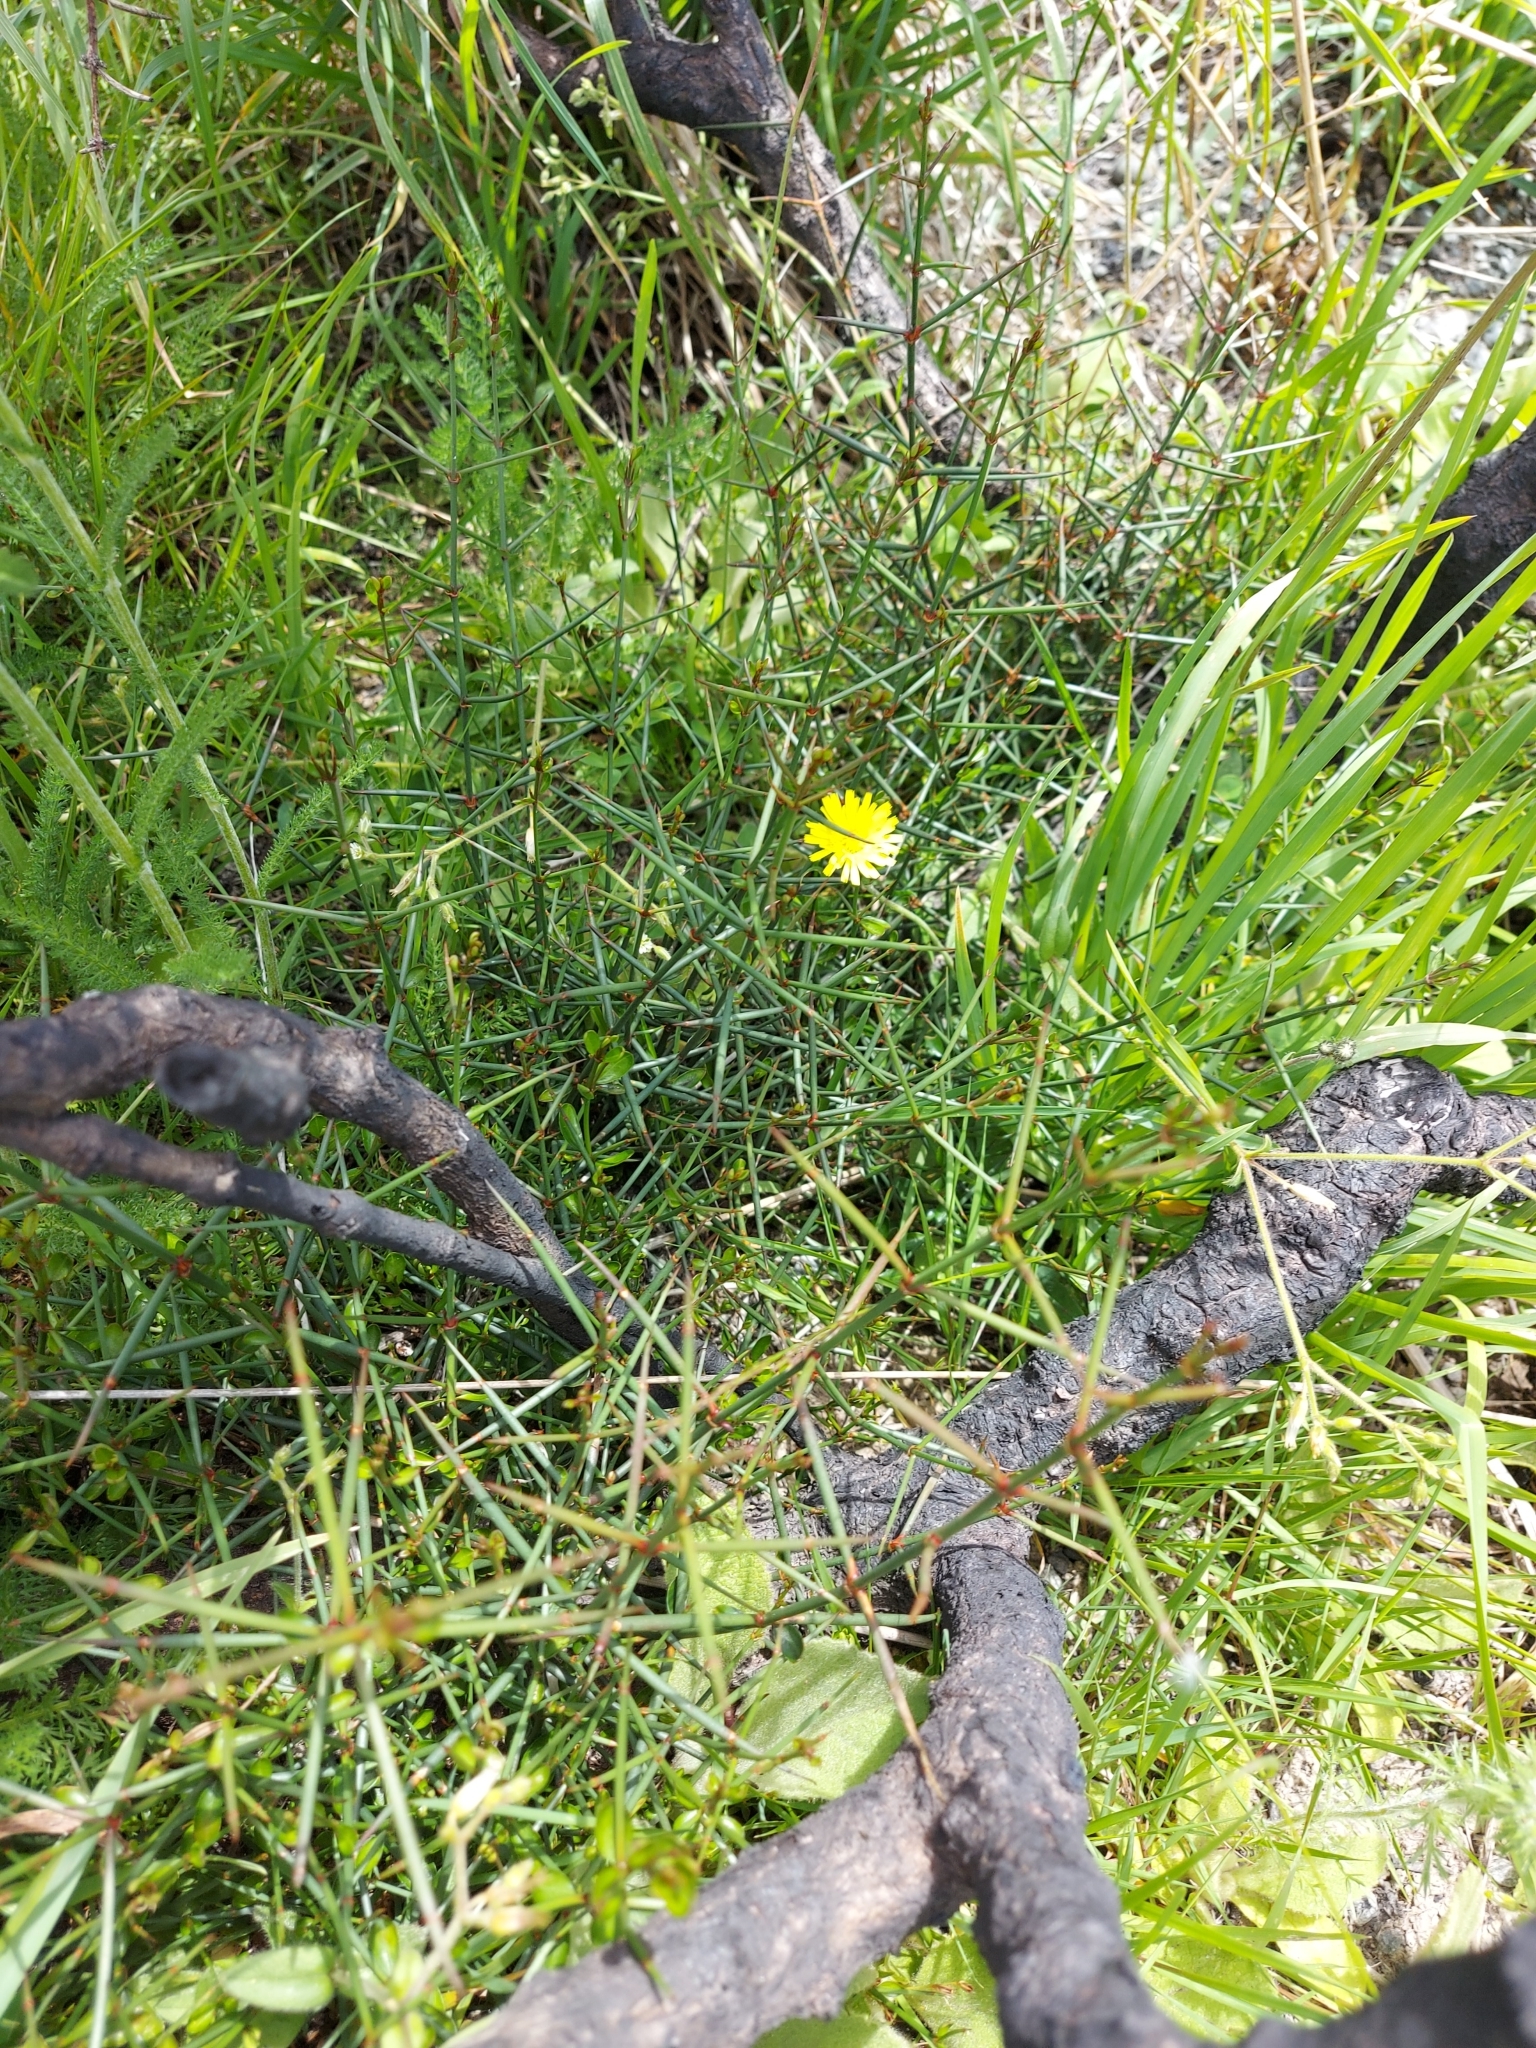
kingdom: Plantae
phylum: Tracheophyta
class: Magnoliopsida
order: Rosales
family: Rhamnaceae
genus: Discaria
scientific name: Discaria toumatou
